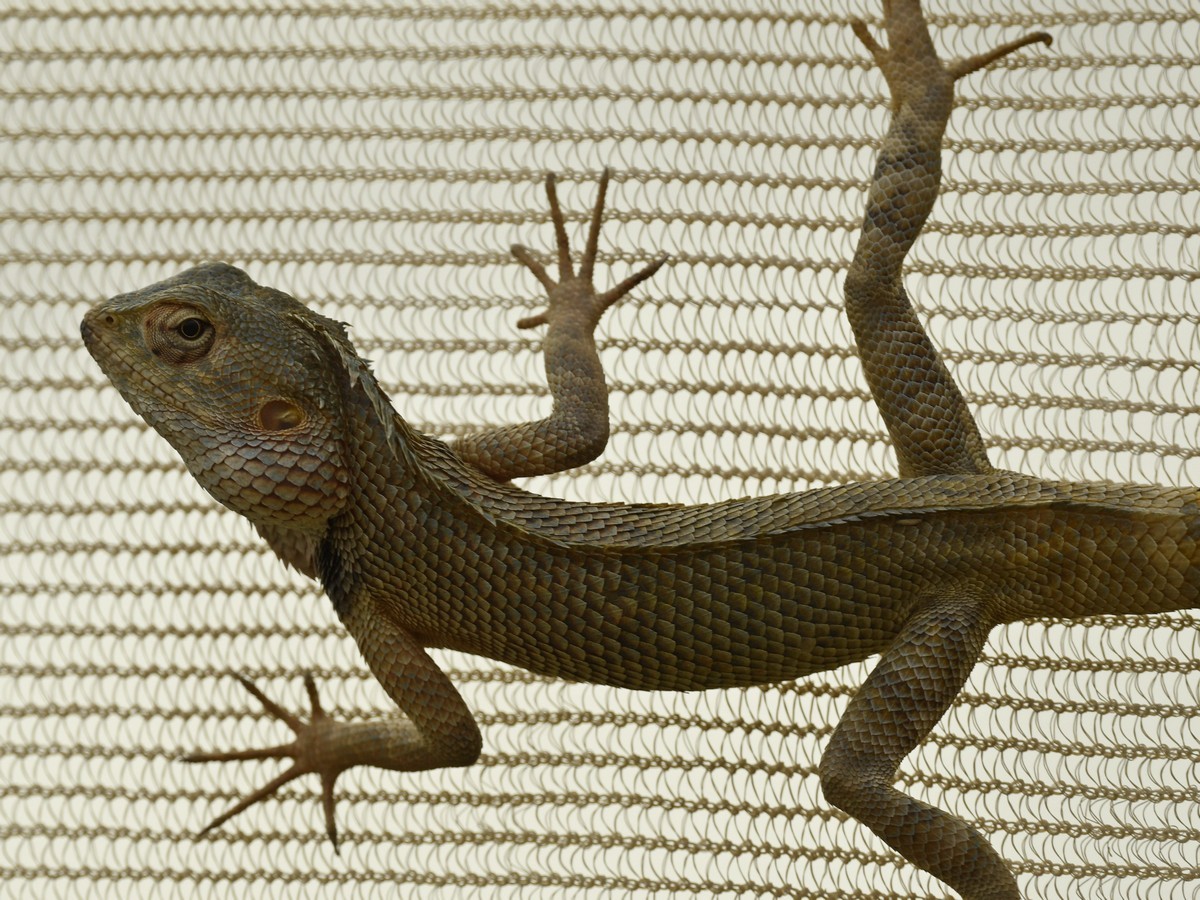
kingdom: Animalia
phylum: Chordata
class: Squamata
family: Agamidae
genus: Calotes
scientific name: Calotes versicolor
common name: Oriental garden lizard
